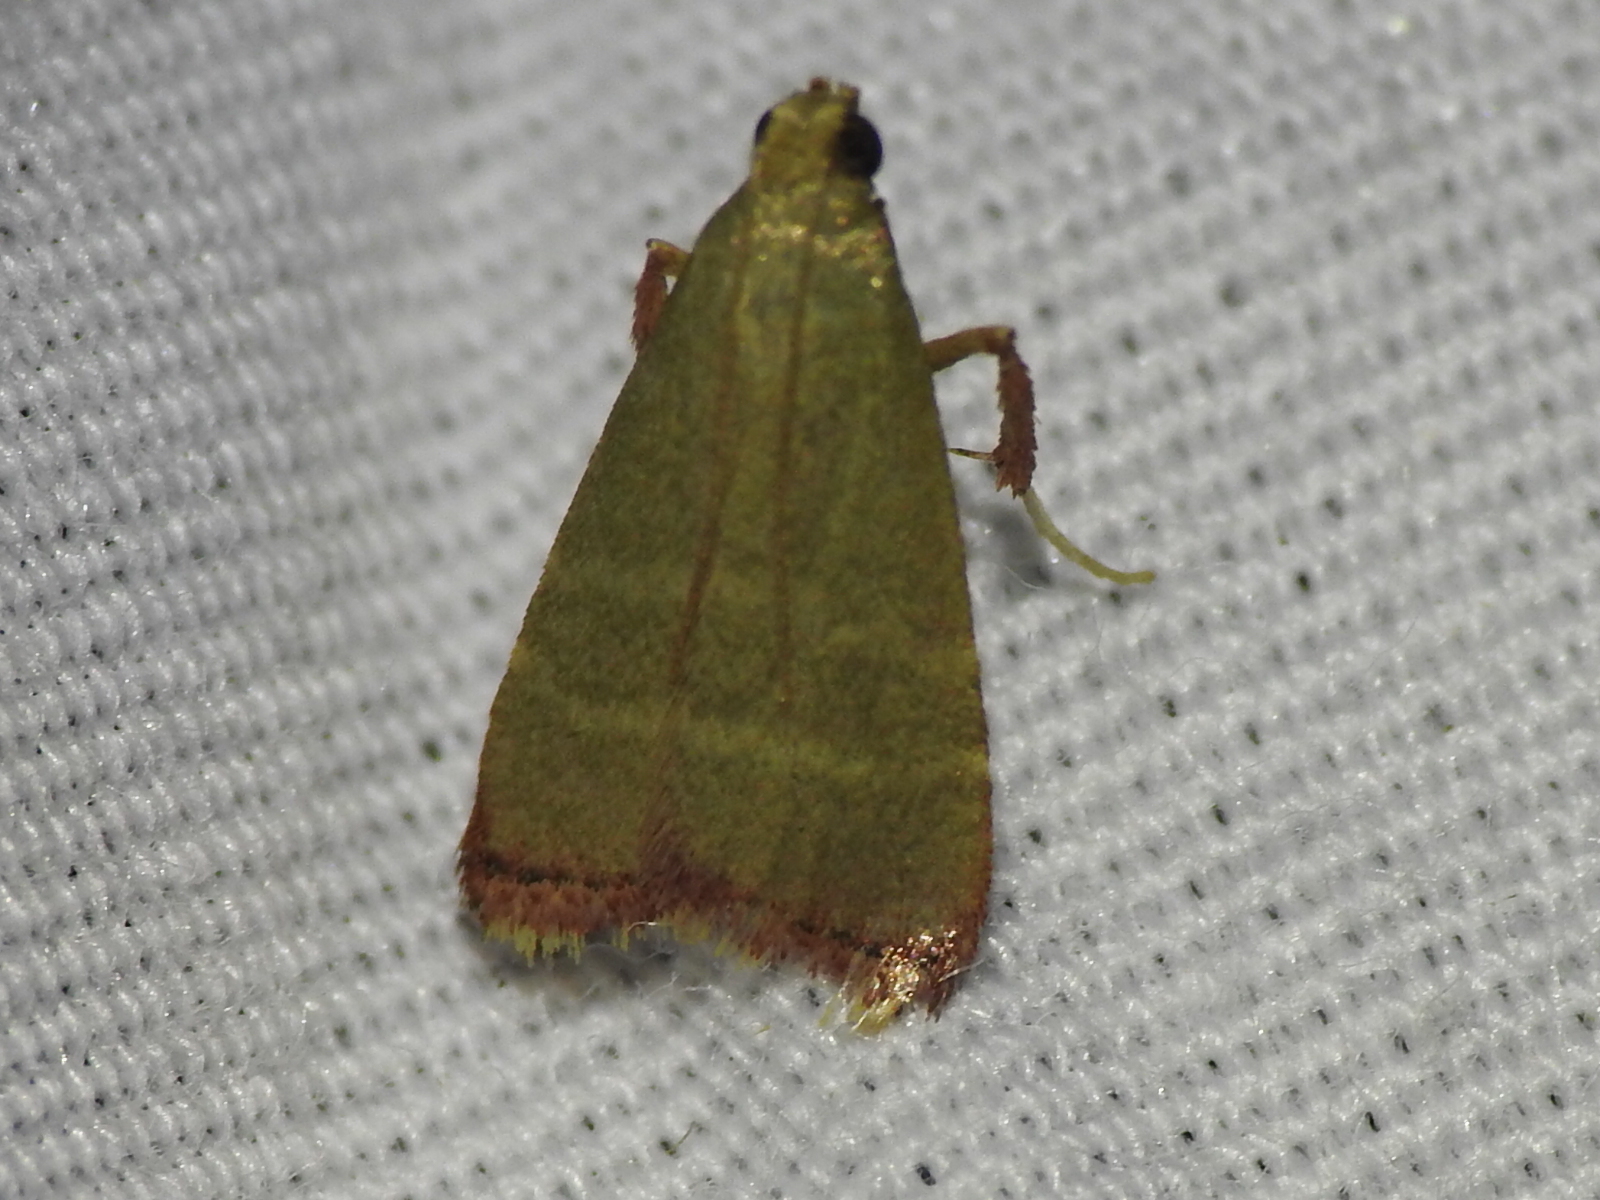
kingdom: Animalia
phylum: Arthropoda
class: Insecta
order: Lepidoptera
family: Pyralidae
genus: Arta
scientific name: Arta olivalis
